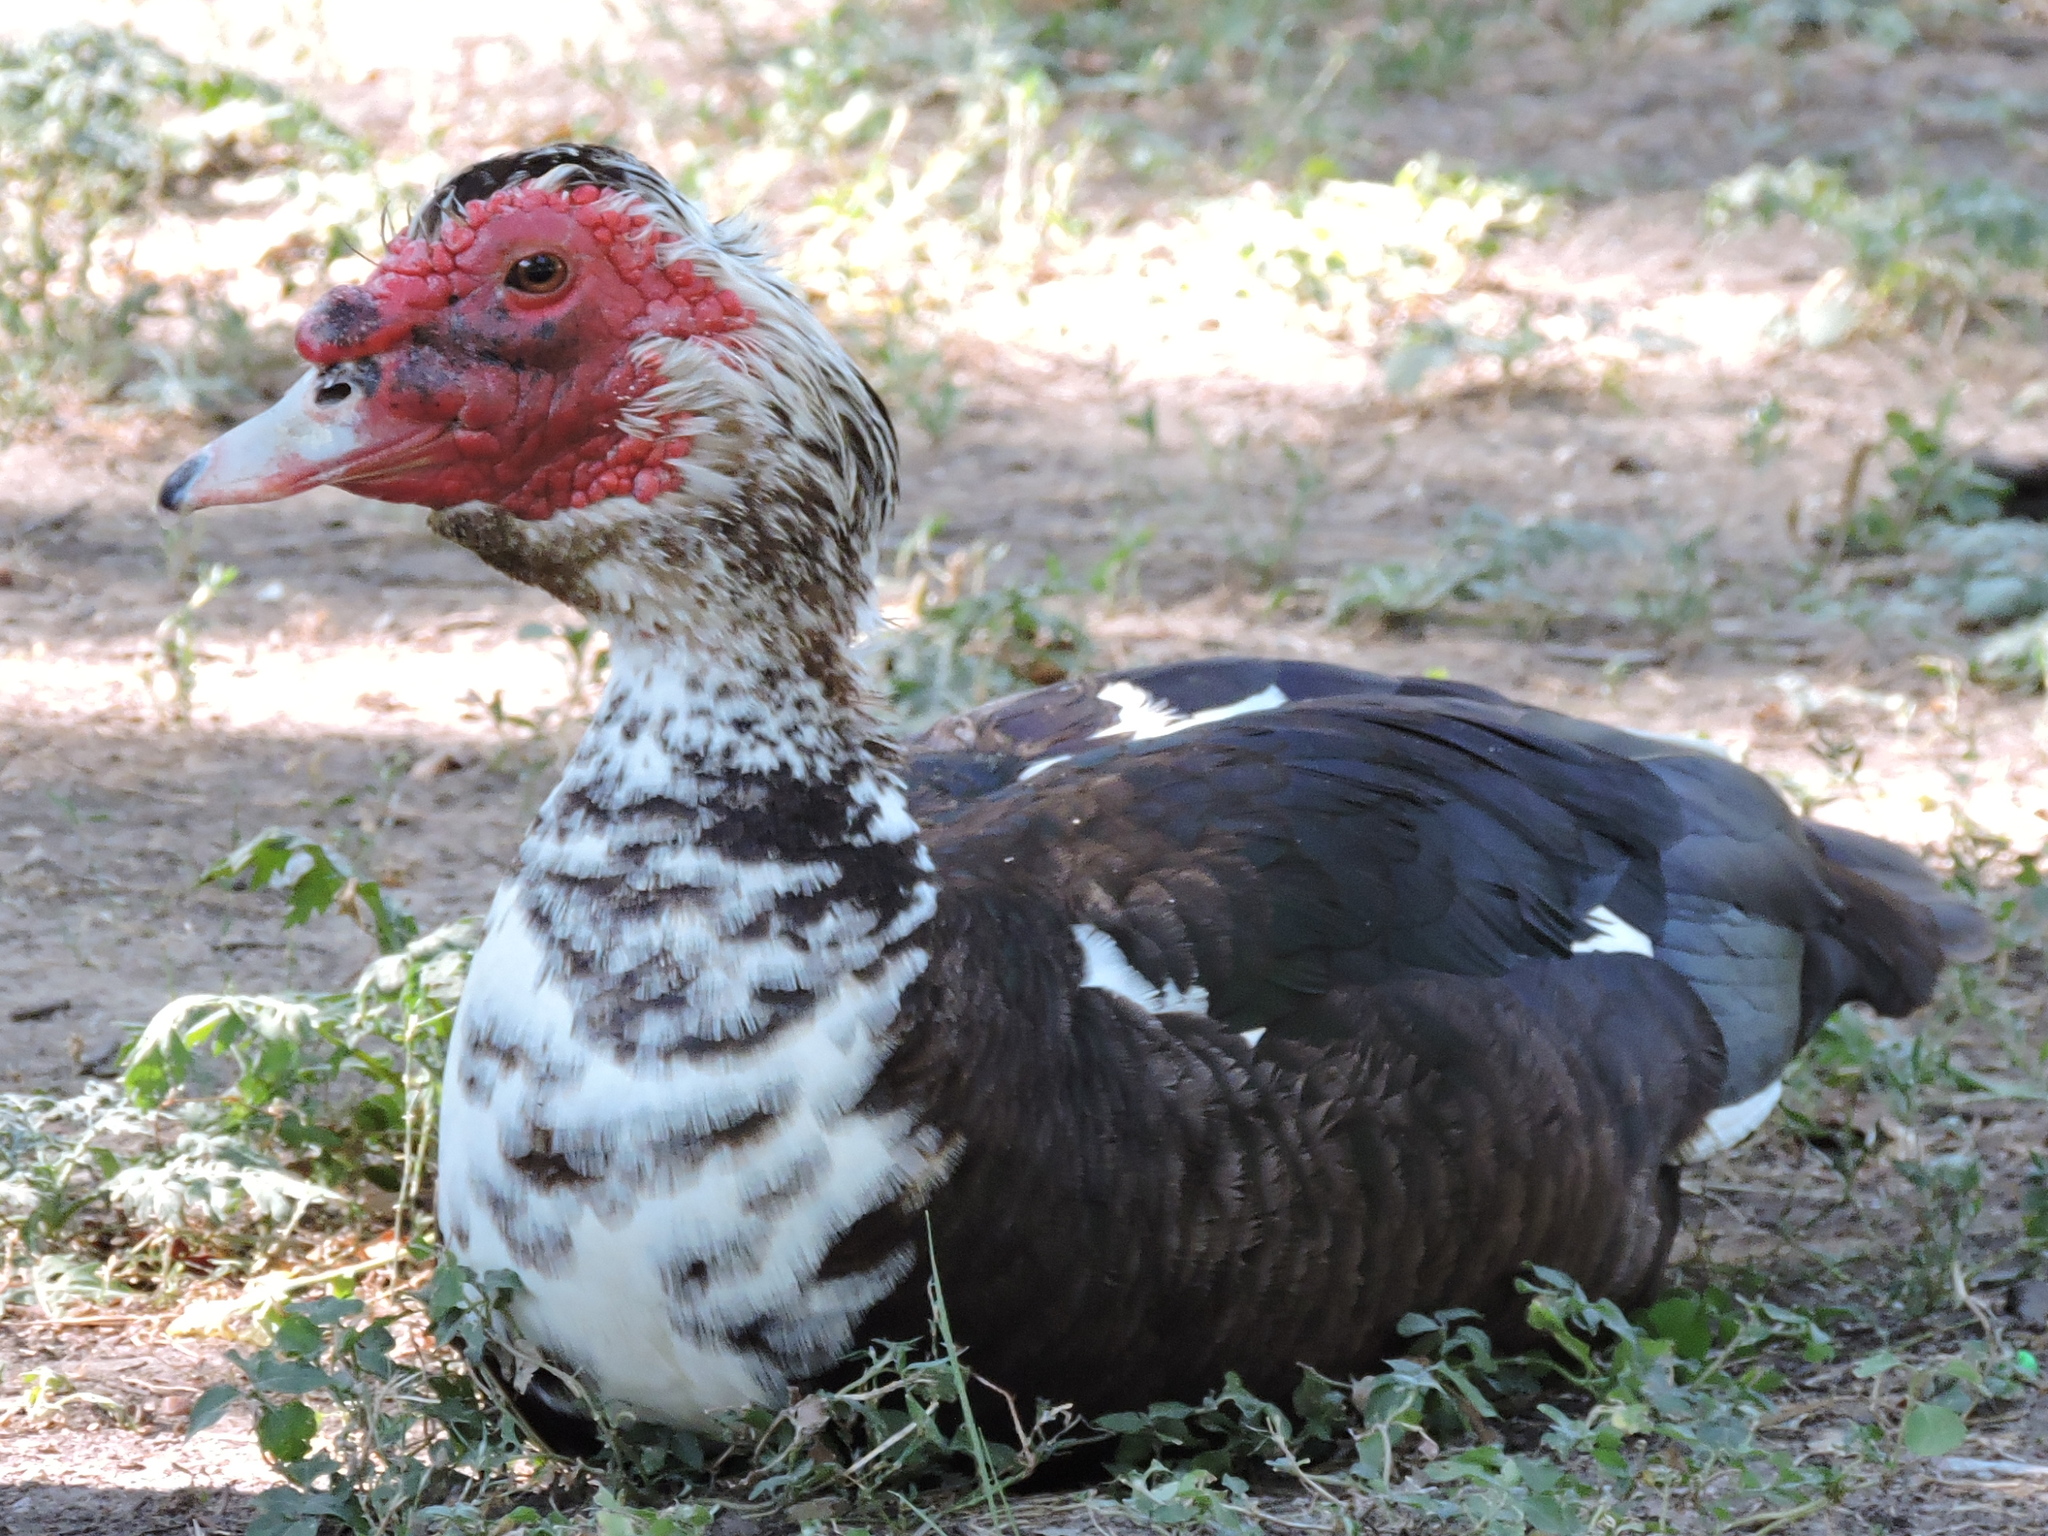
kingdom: Animalia
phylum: Chordata
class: Aves
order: Anseriformes
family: Anatidae
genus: Cairina
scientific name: Cairina moschata
